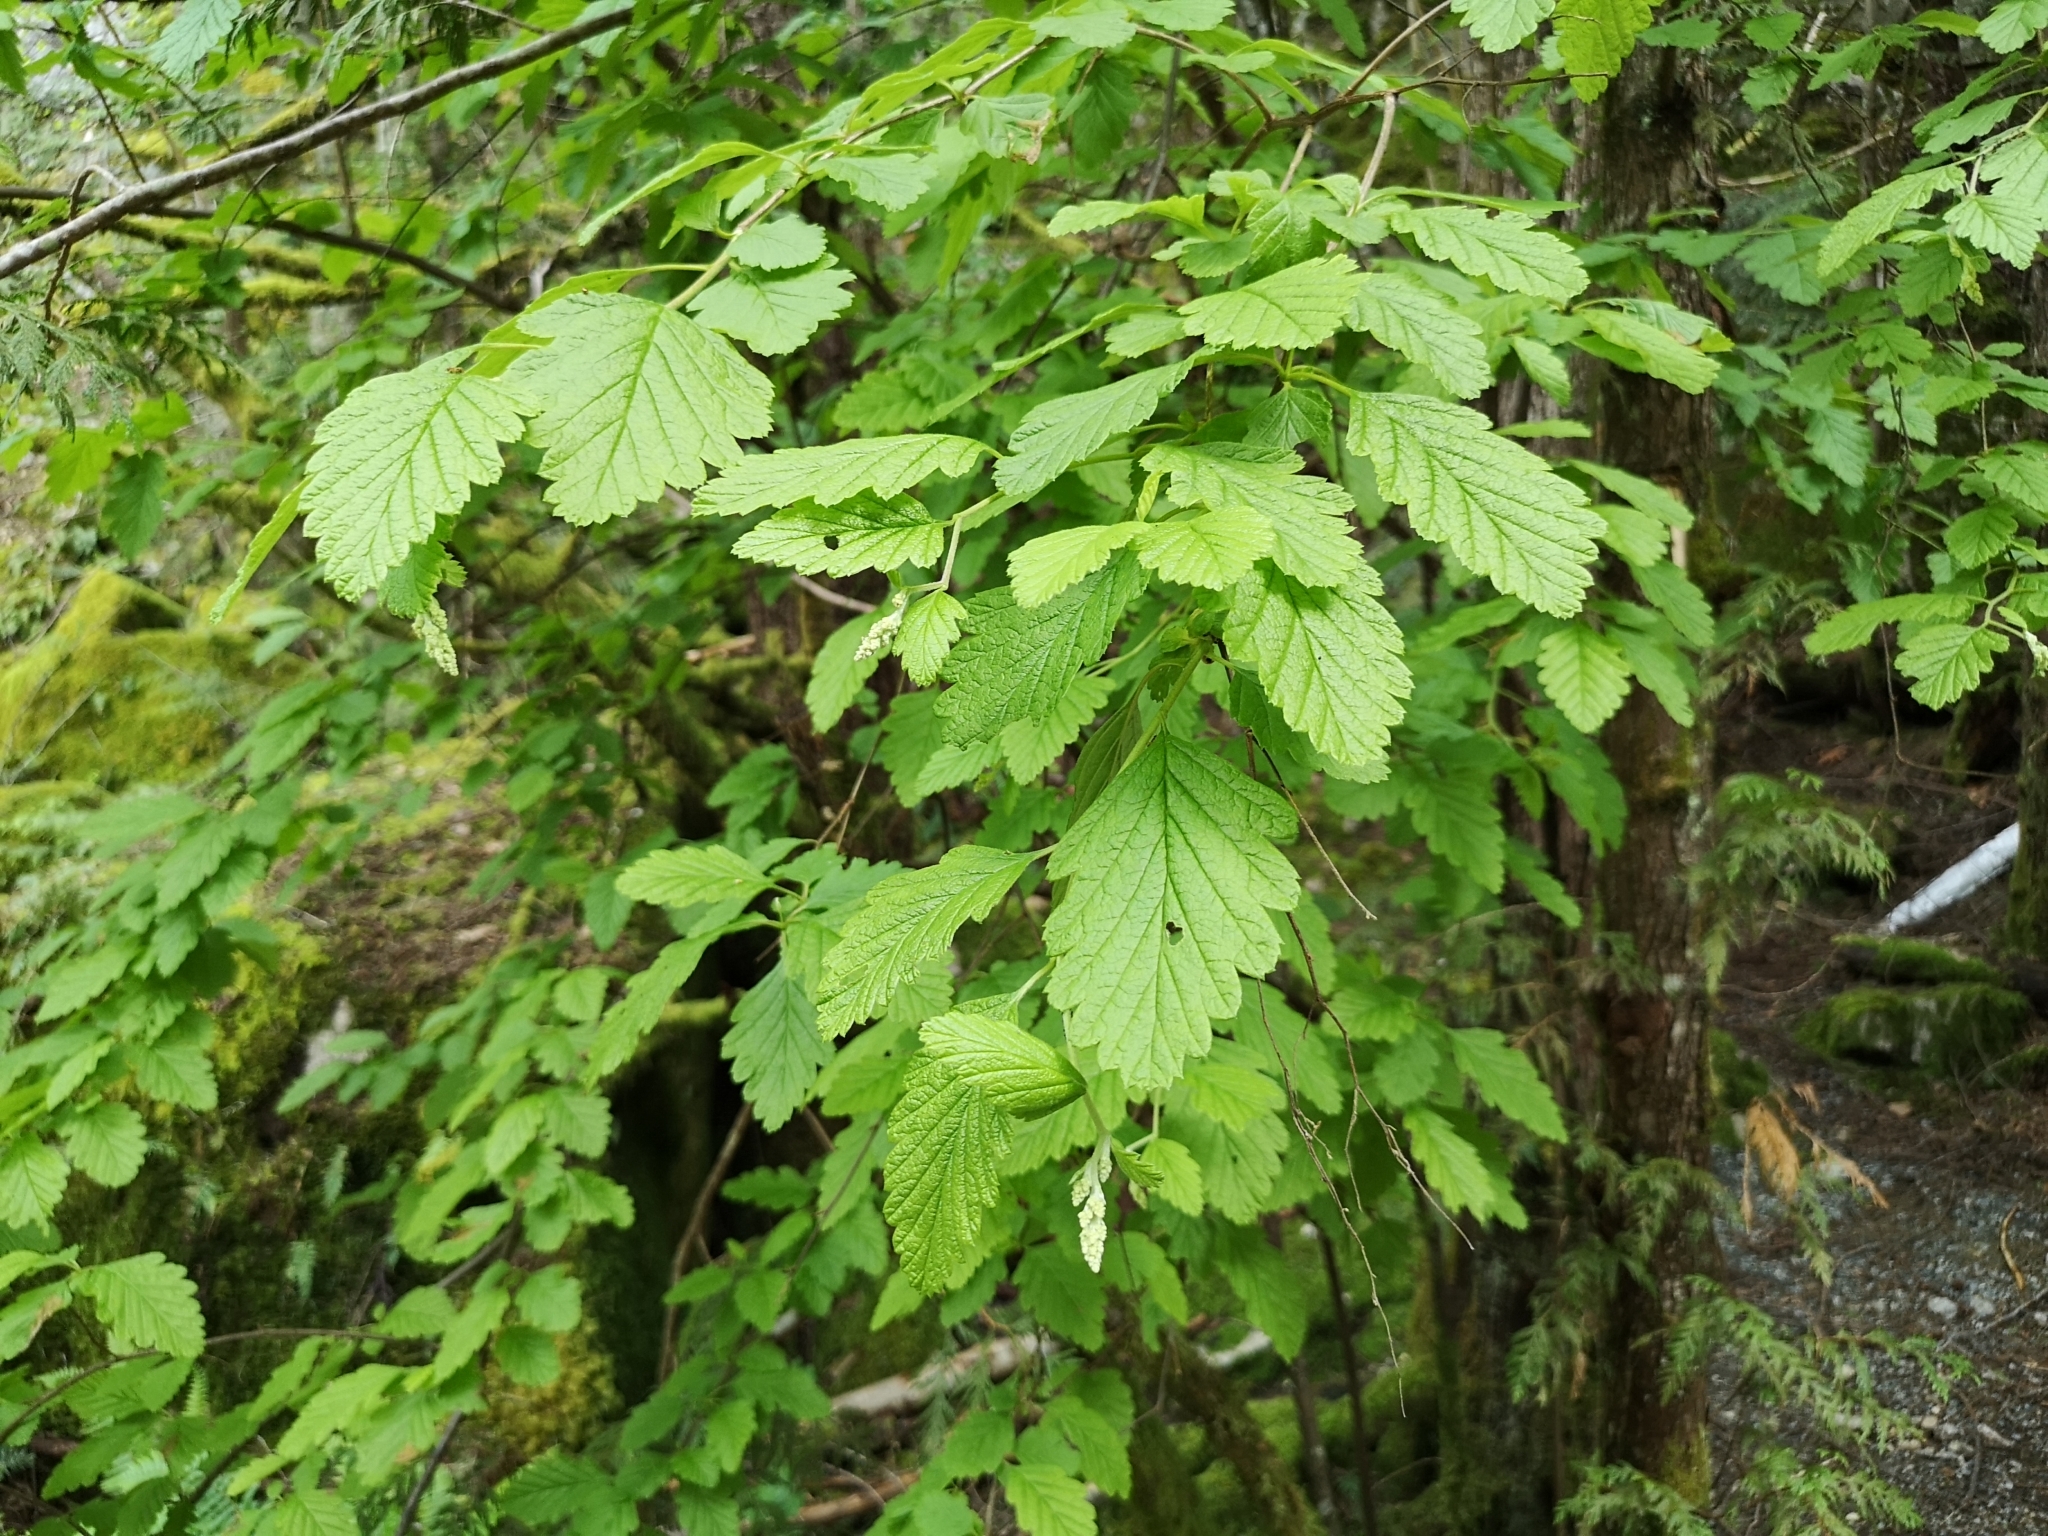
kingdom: Plantae
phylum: Tracheophyta
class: Magnoliopsida
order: Rosales
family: Rosaceae
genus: Holodiscus
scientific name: Holodiscus discolor
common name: Oceanspray
